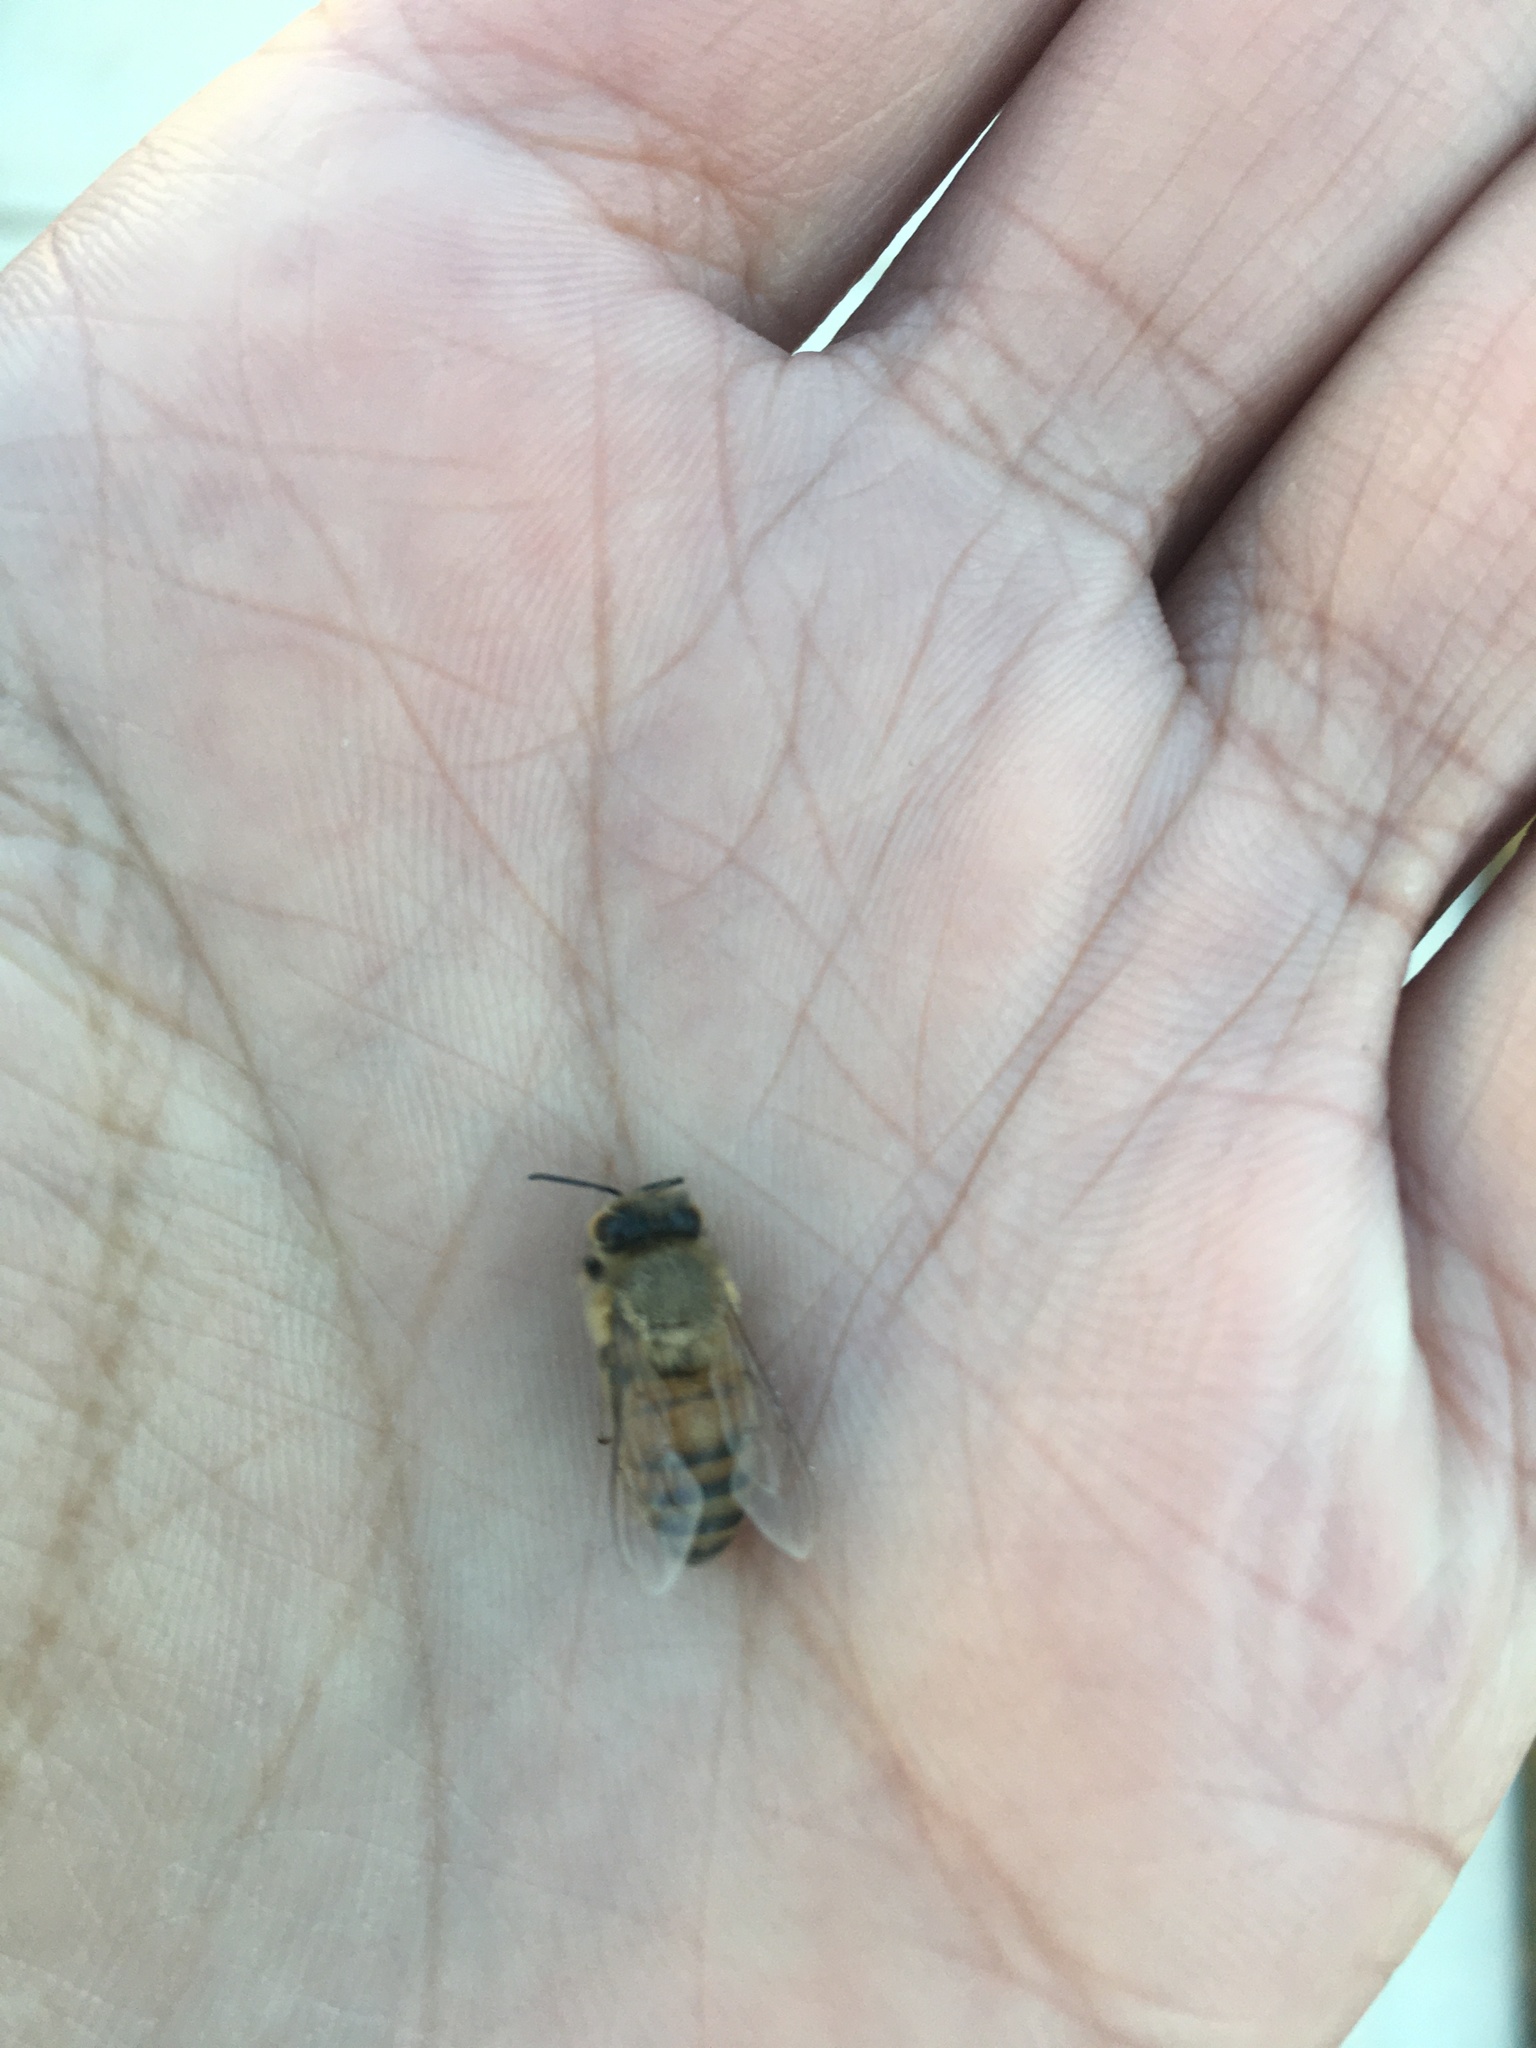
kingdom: Animalia
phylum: Arthropoda
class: Insecta
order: Hymenoptera
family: Apidae
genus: Apis
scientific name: Apis mellifera
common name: Honey bee
